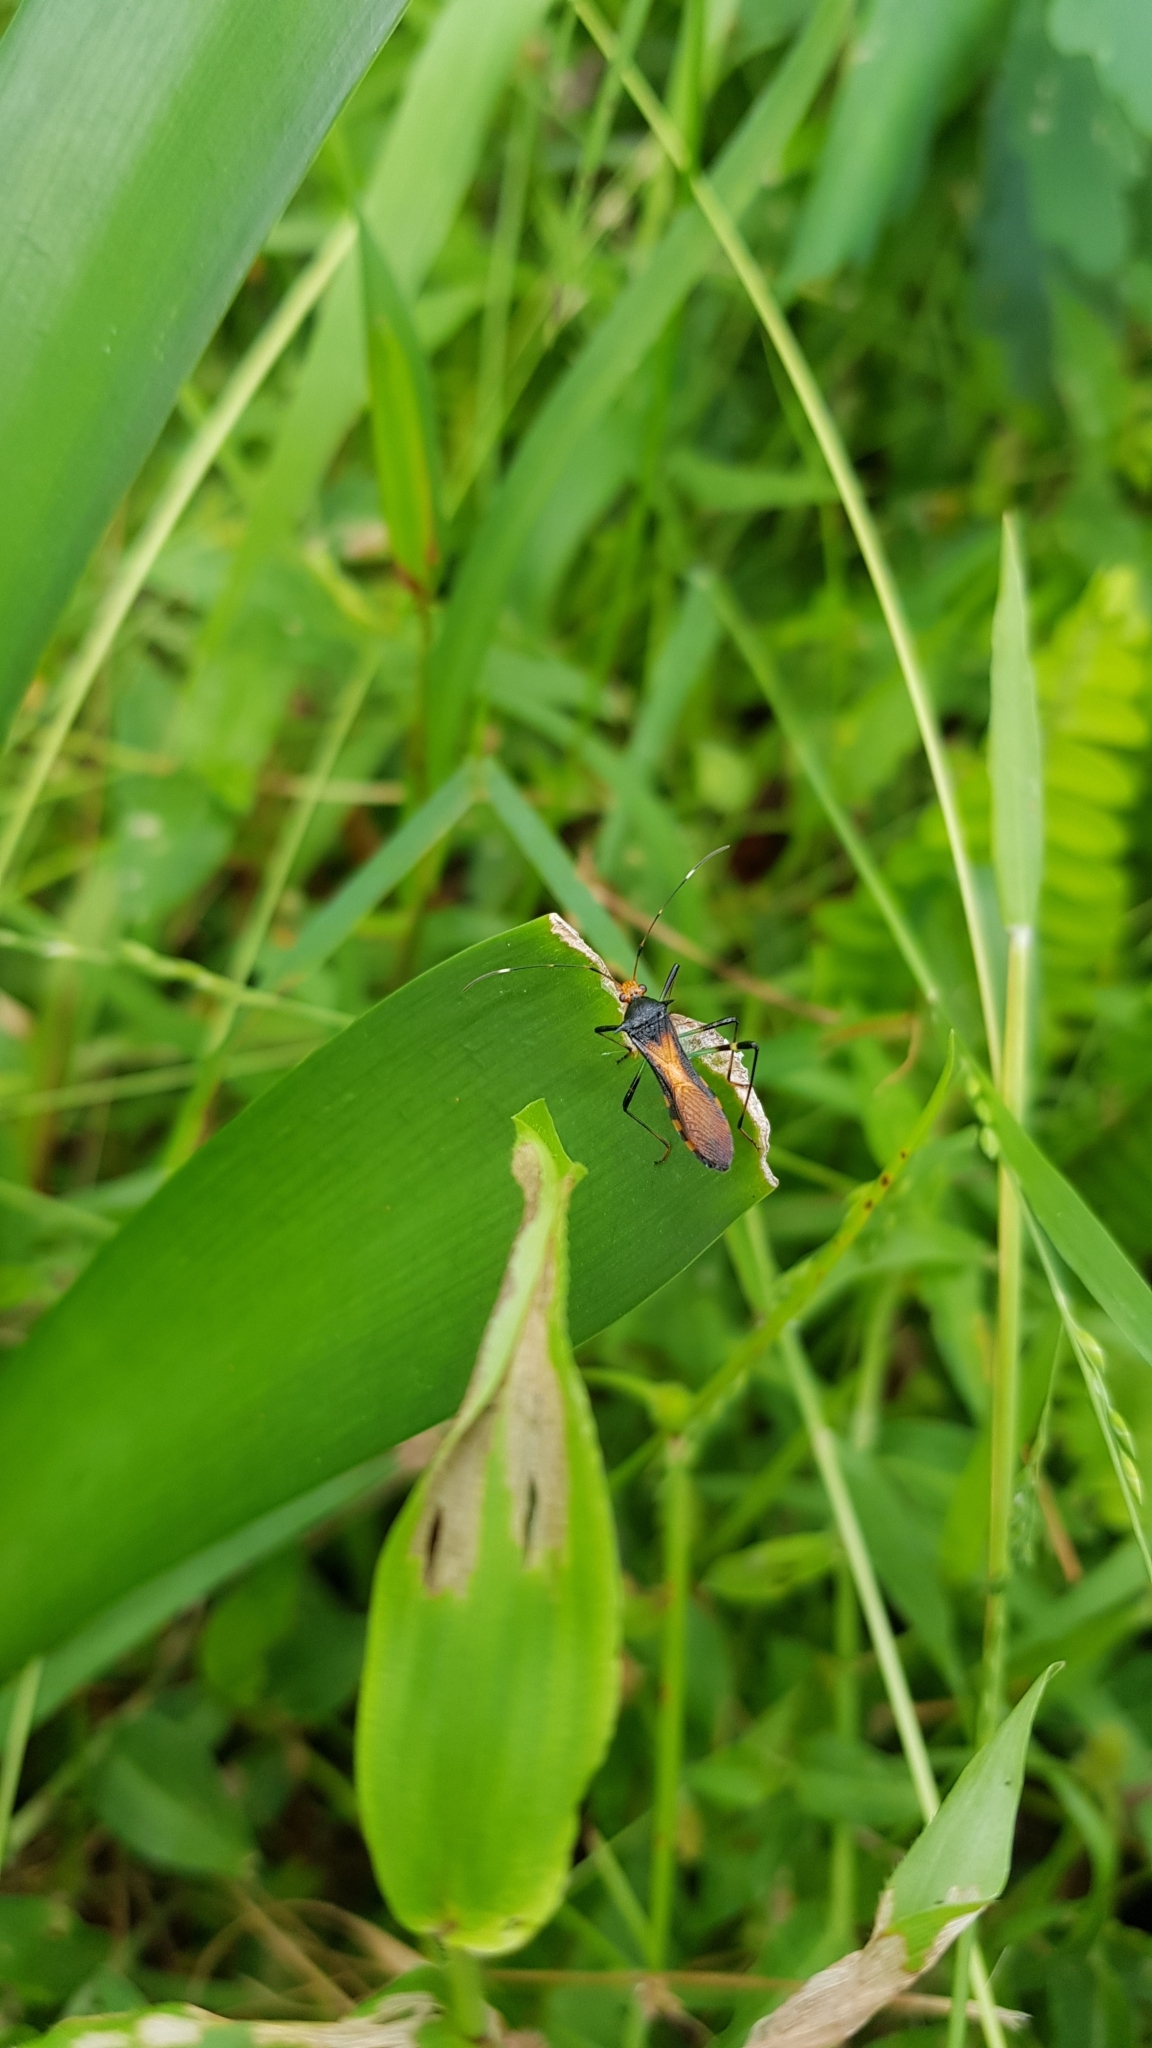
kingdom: Animalia
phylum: Arthropoda
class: Insecta
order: Hemiptera
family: Alydidae
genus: Noliphus
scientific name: Noliphus erythrocephalus
